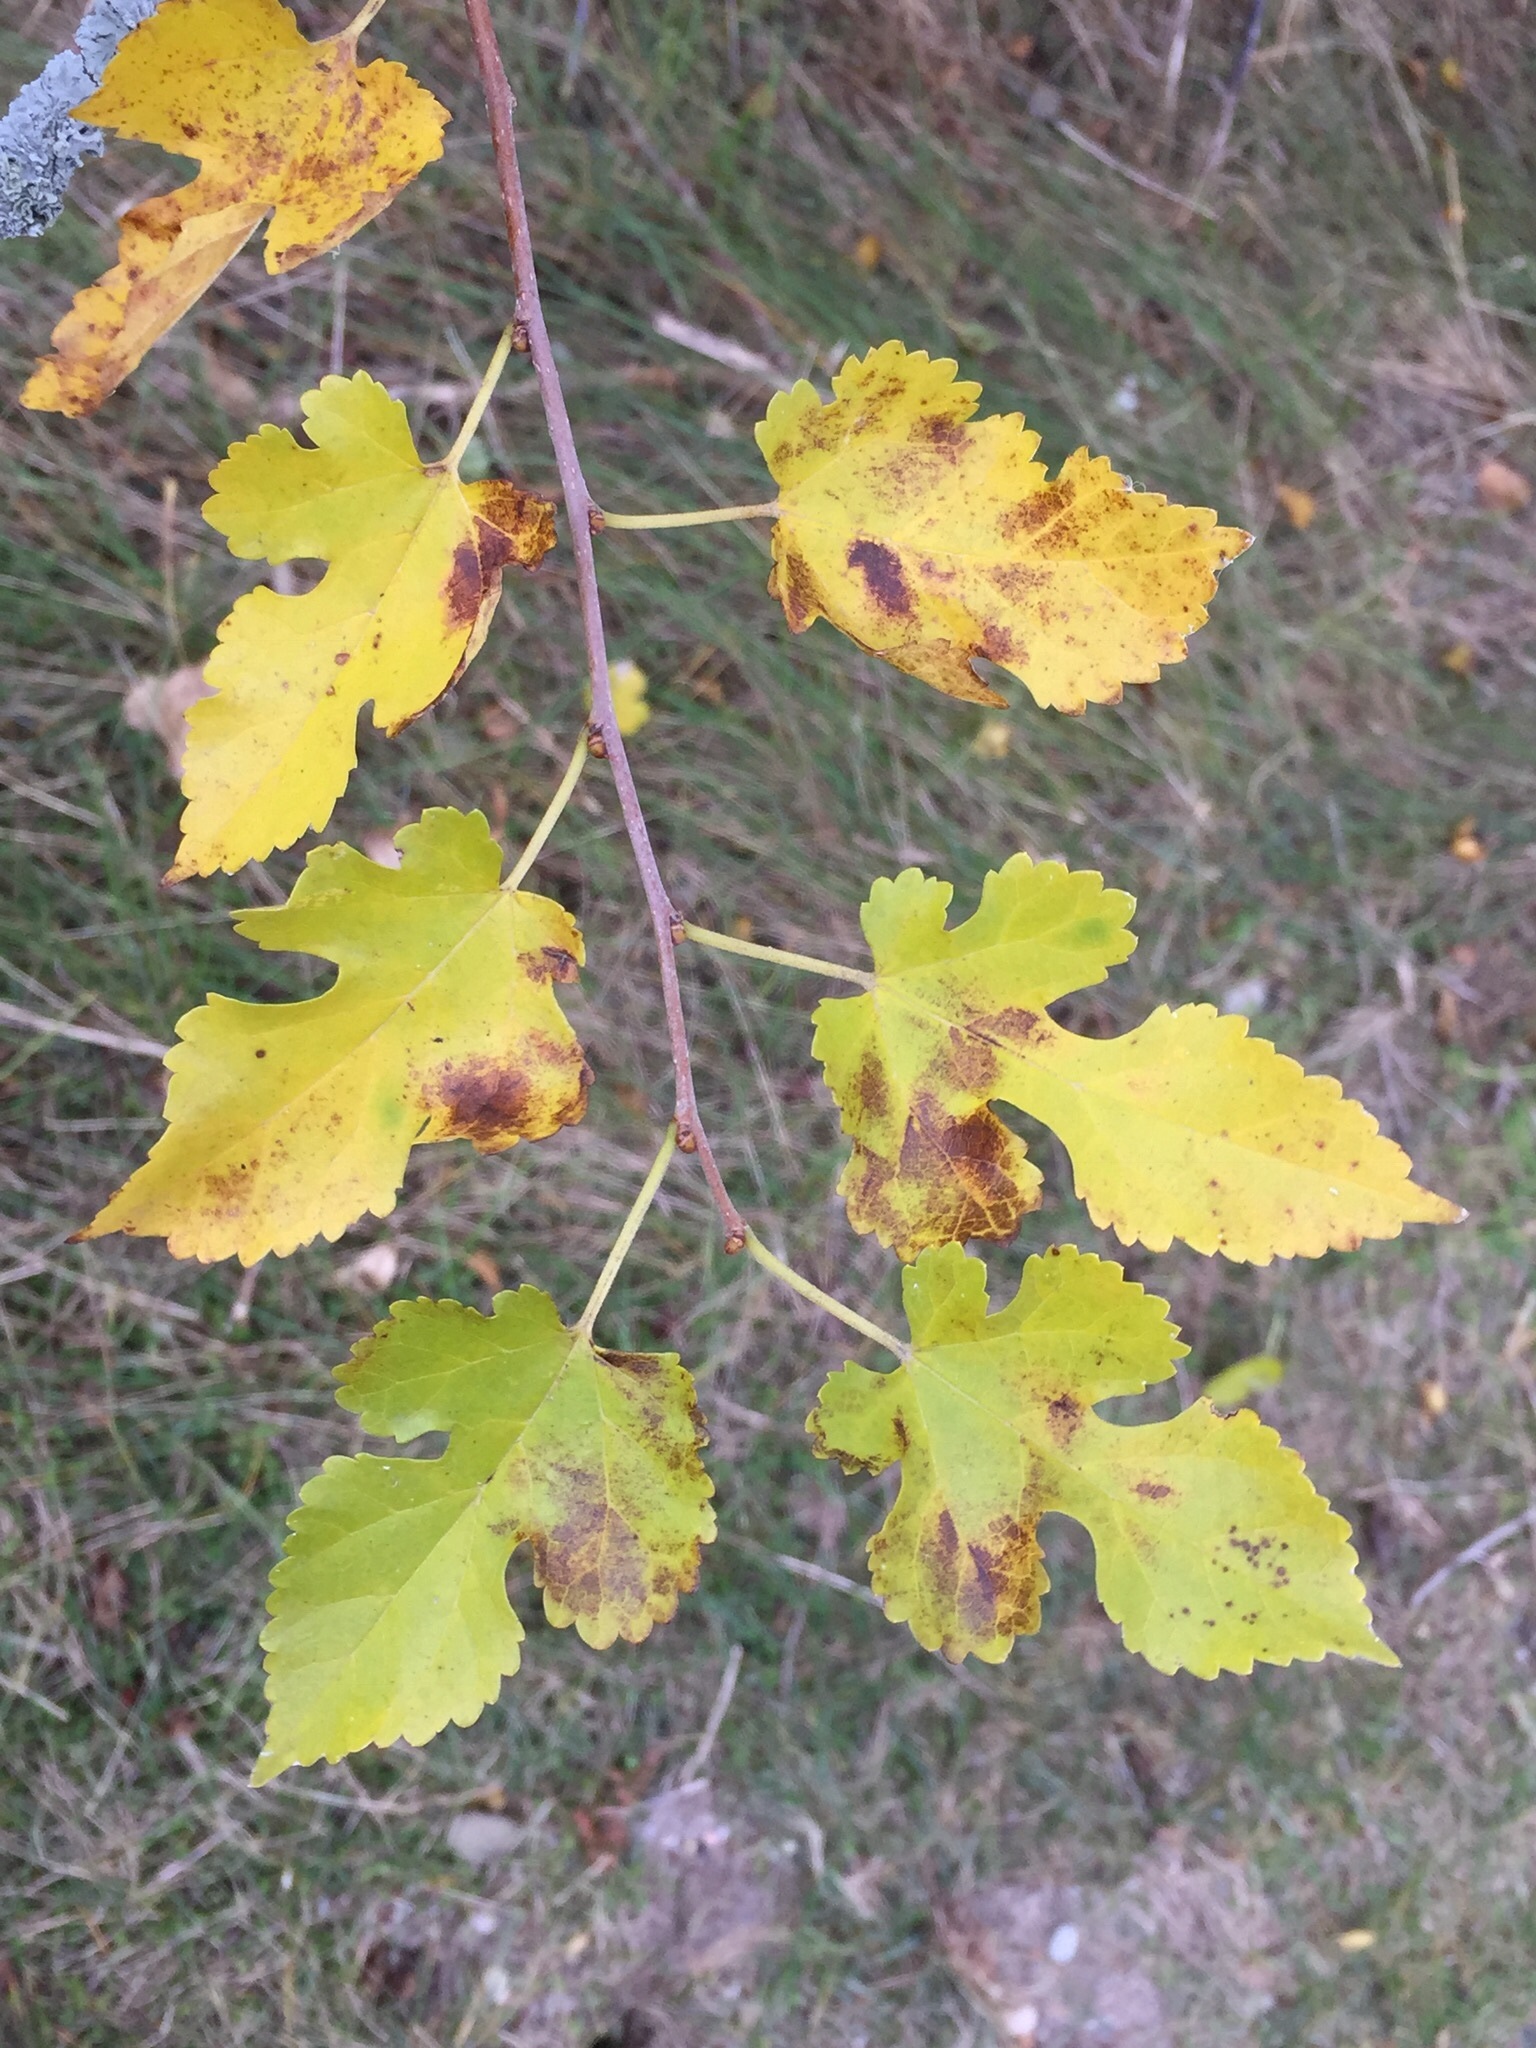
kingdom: Plantae
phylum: Tracheophyta
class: Magnoliopsida
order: Rosales
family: Moraceae
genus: Morus
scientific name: Morus alba
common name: White mulberry
